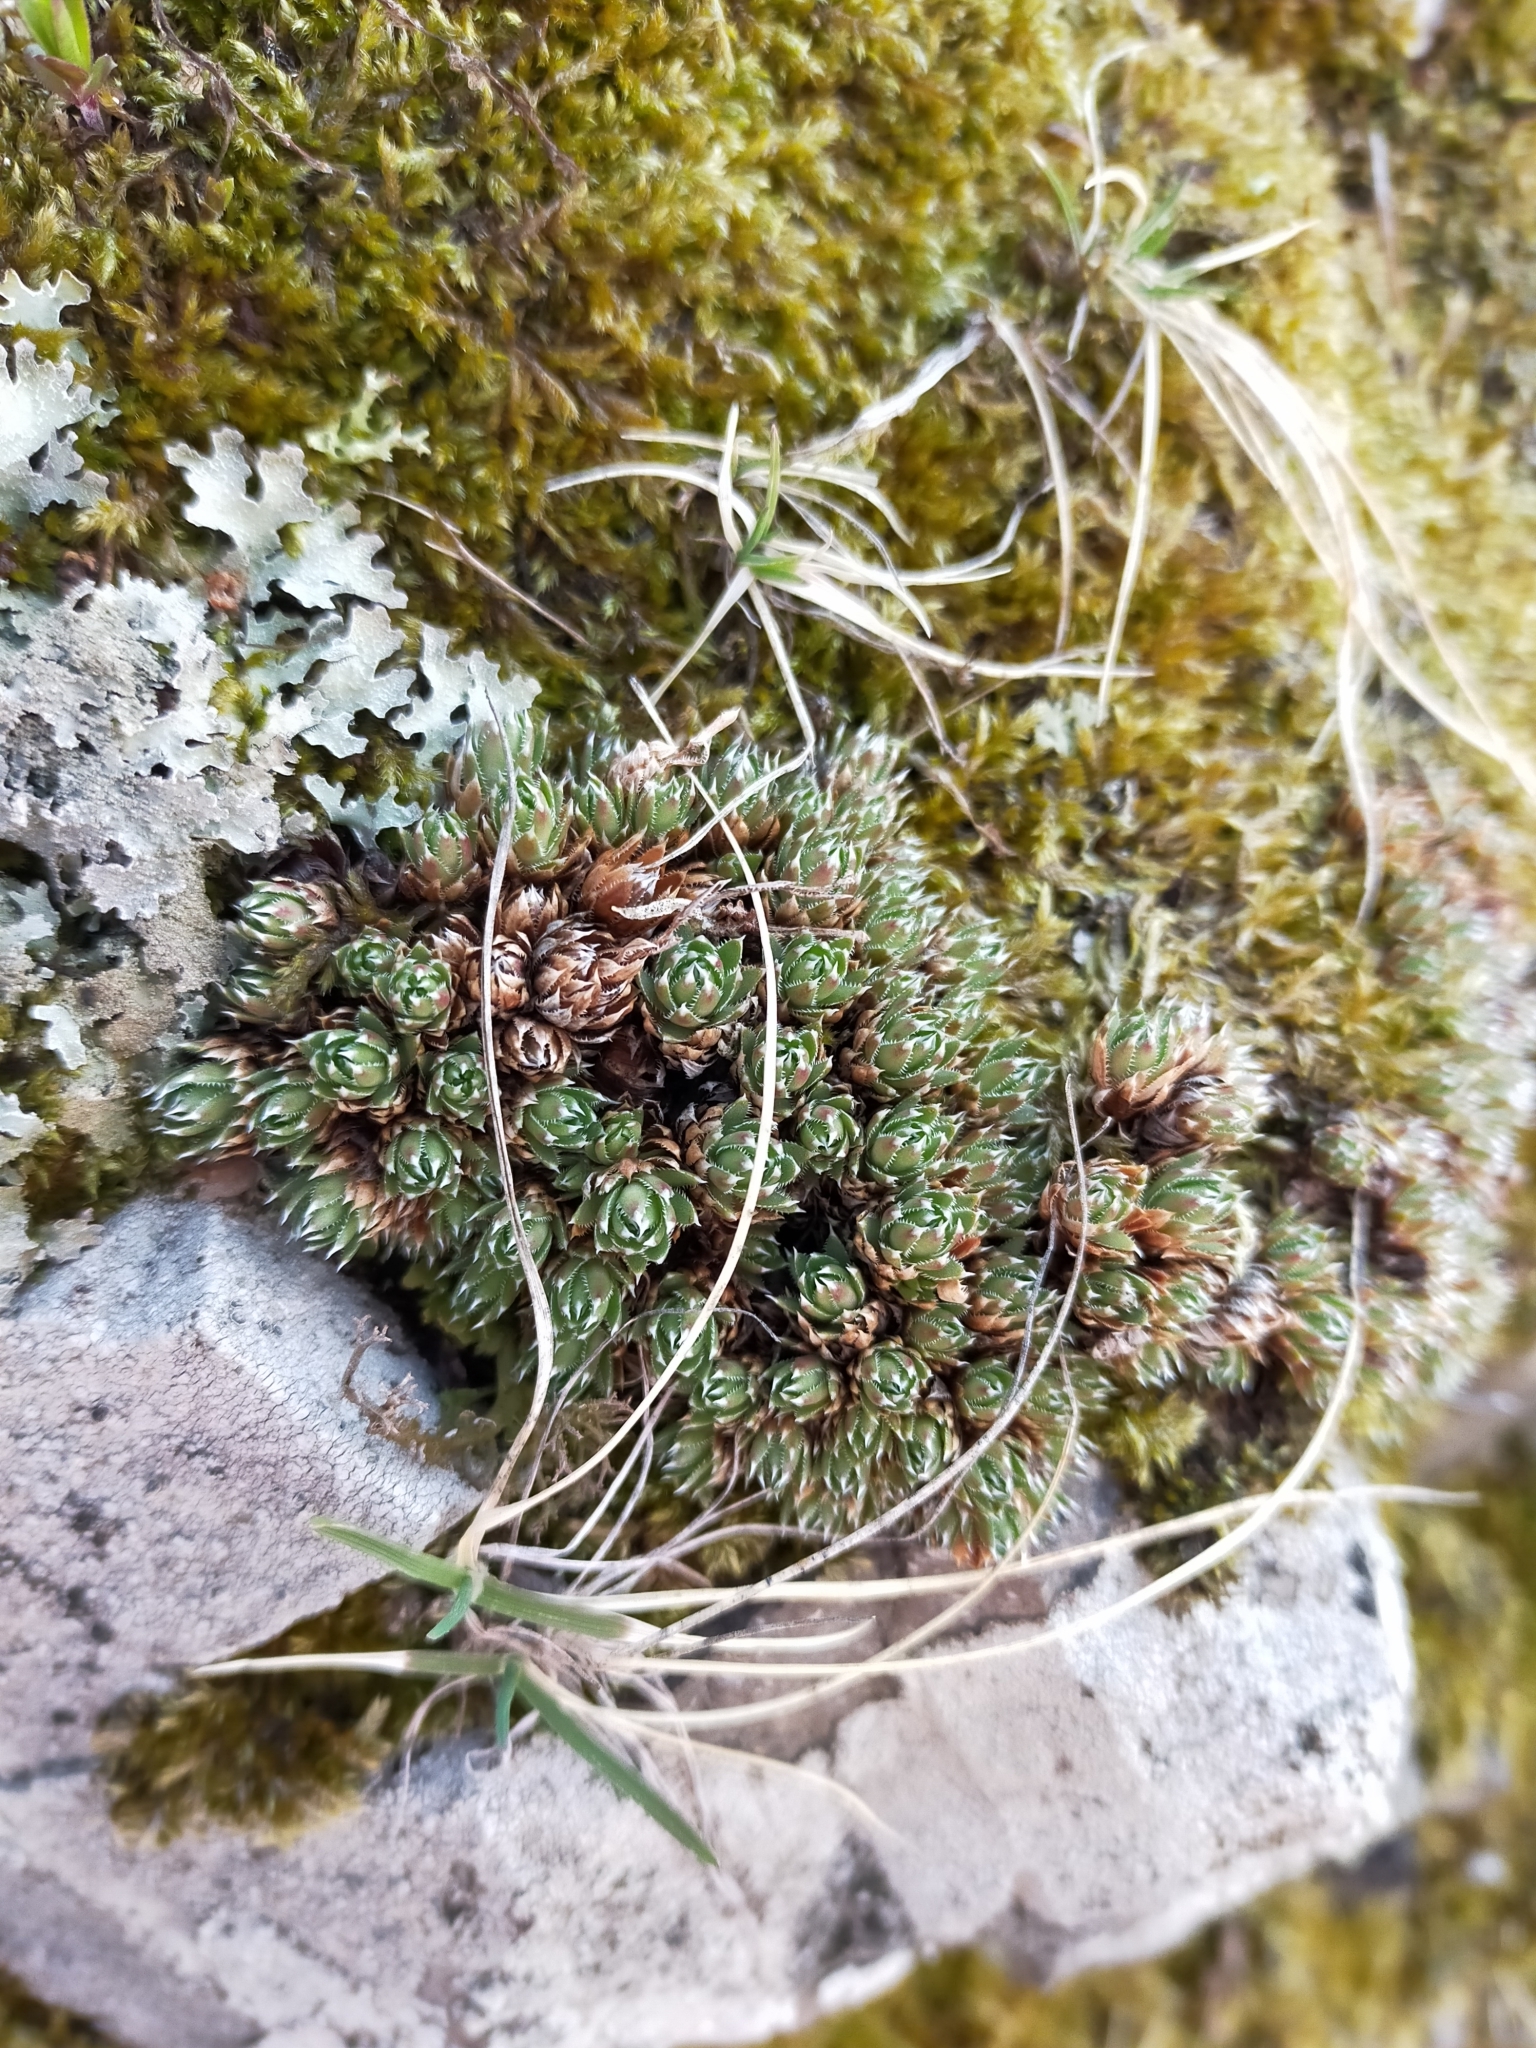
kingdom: Plantae
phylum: Tracheophyta
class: Magnoliopsida
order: Saxifragales
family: Saxifragaceae
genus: Saxifraga
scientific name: Saxifraga cherlerioides
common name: Yellow-dotted saxifrage
